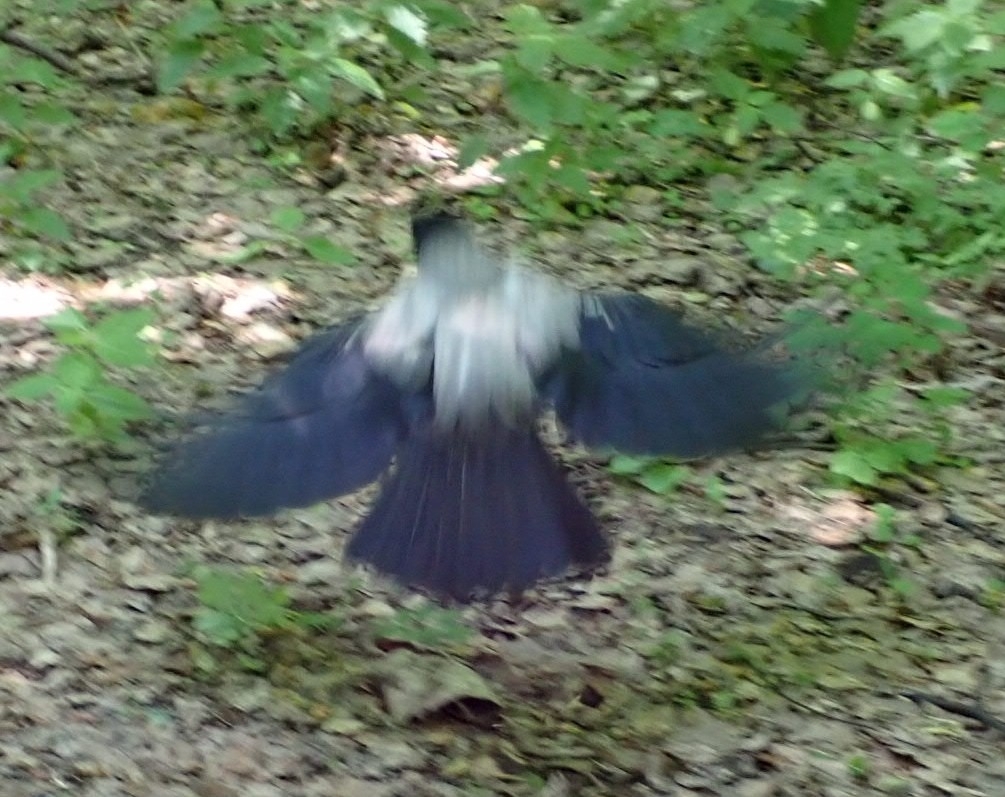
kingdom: Animalia
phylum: Chordata
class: Aves
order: Passeriformes
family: Corvidae
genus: Corvus
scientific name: Corvus cornix
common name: Hooded crow
